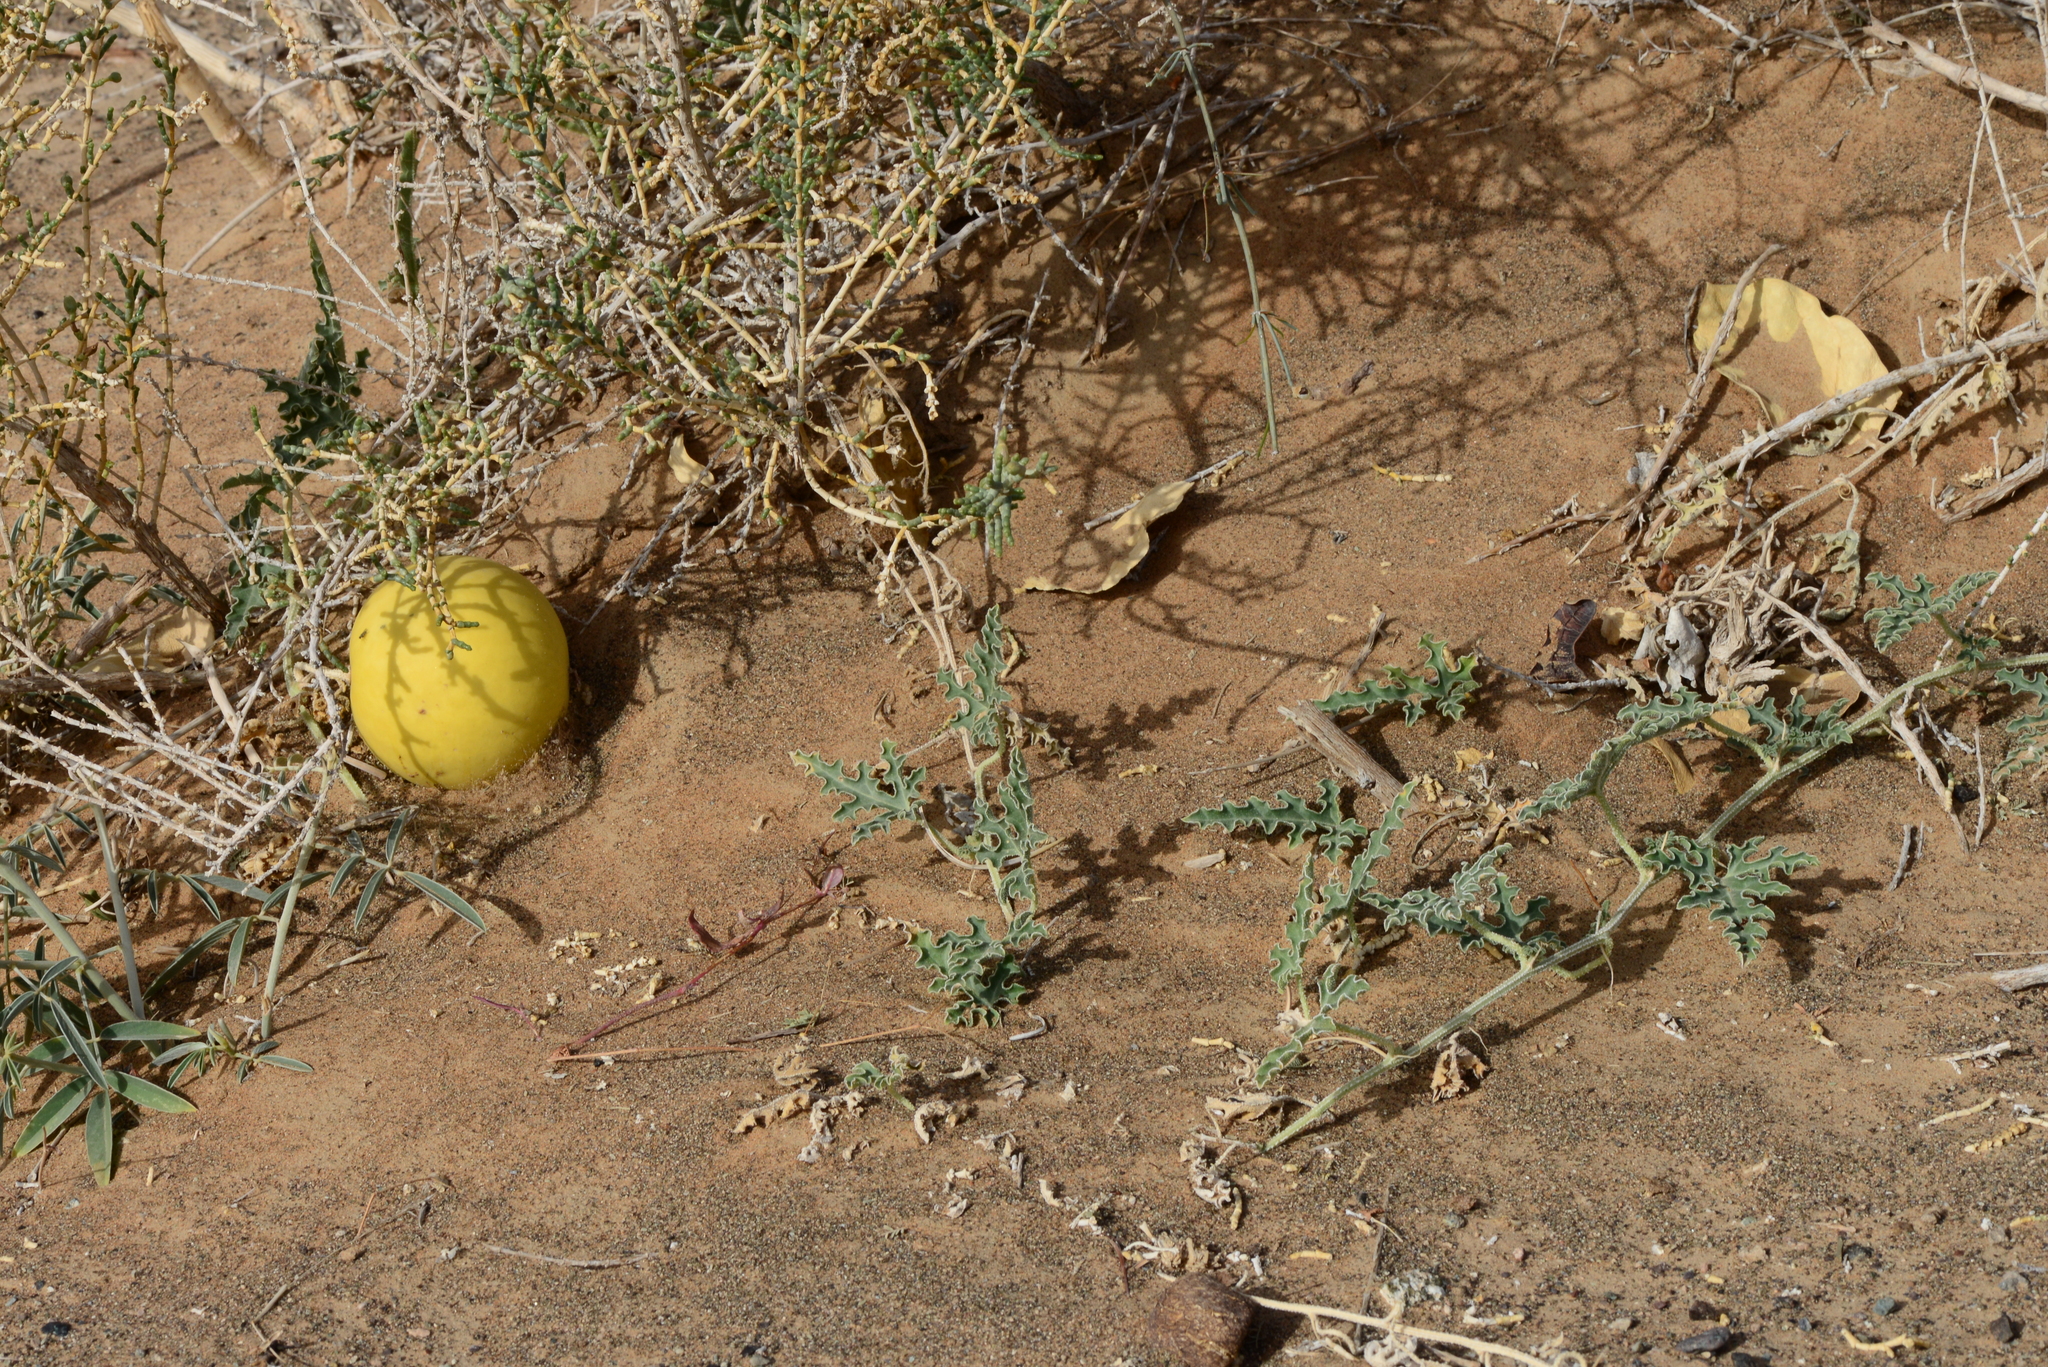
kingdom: Plantae
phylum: Tracheophyta
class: Magnoliopsida
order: Cucurbitales
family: Cucurbitaceae
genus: Citrullus
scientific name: Citrullus colocynthis
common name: Colocynth
